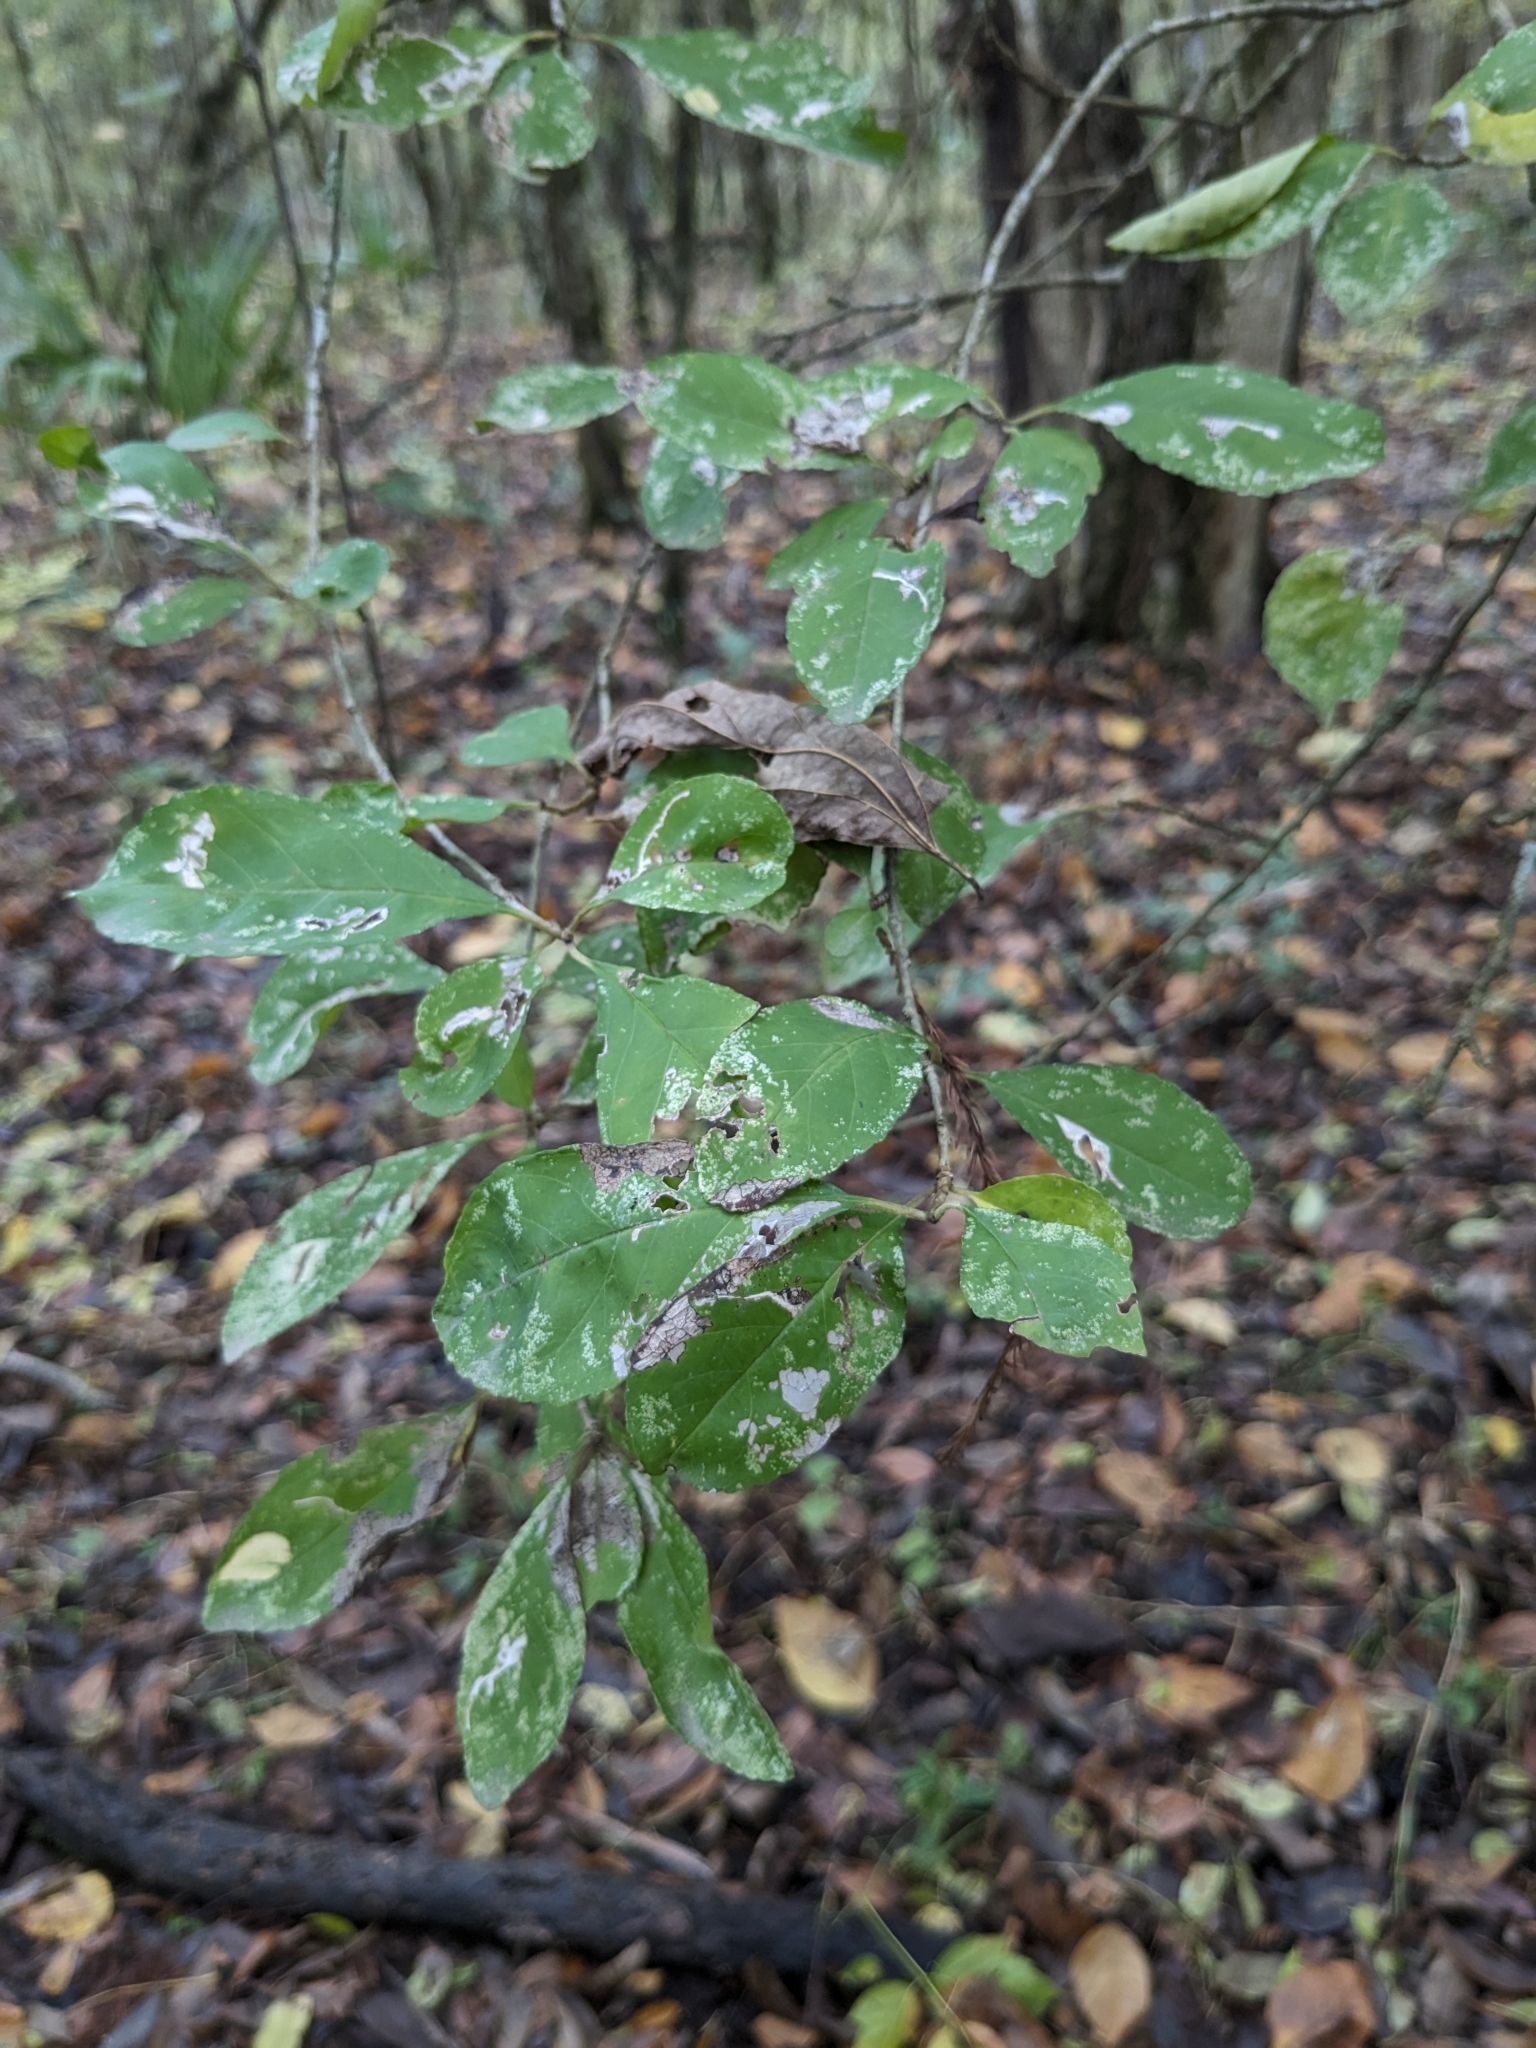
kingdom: Plantae
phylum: Tracheophyta
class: Magnoliopsida
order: Aquifoliales
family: Aquifoliaceae
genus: Ilex
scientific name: Ilex decidua
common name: Possum-haw
